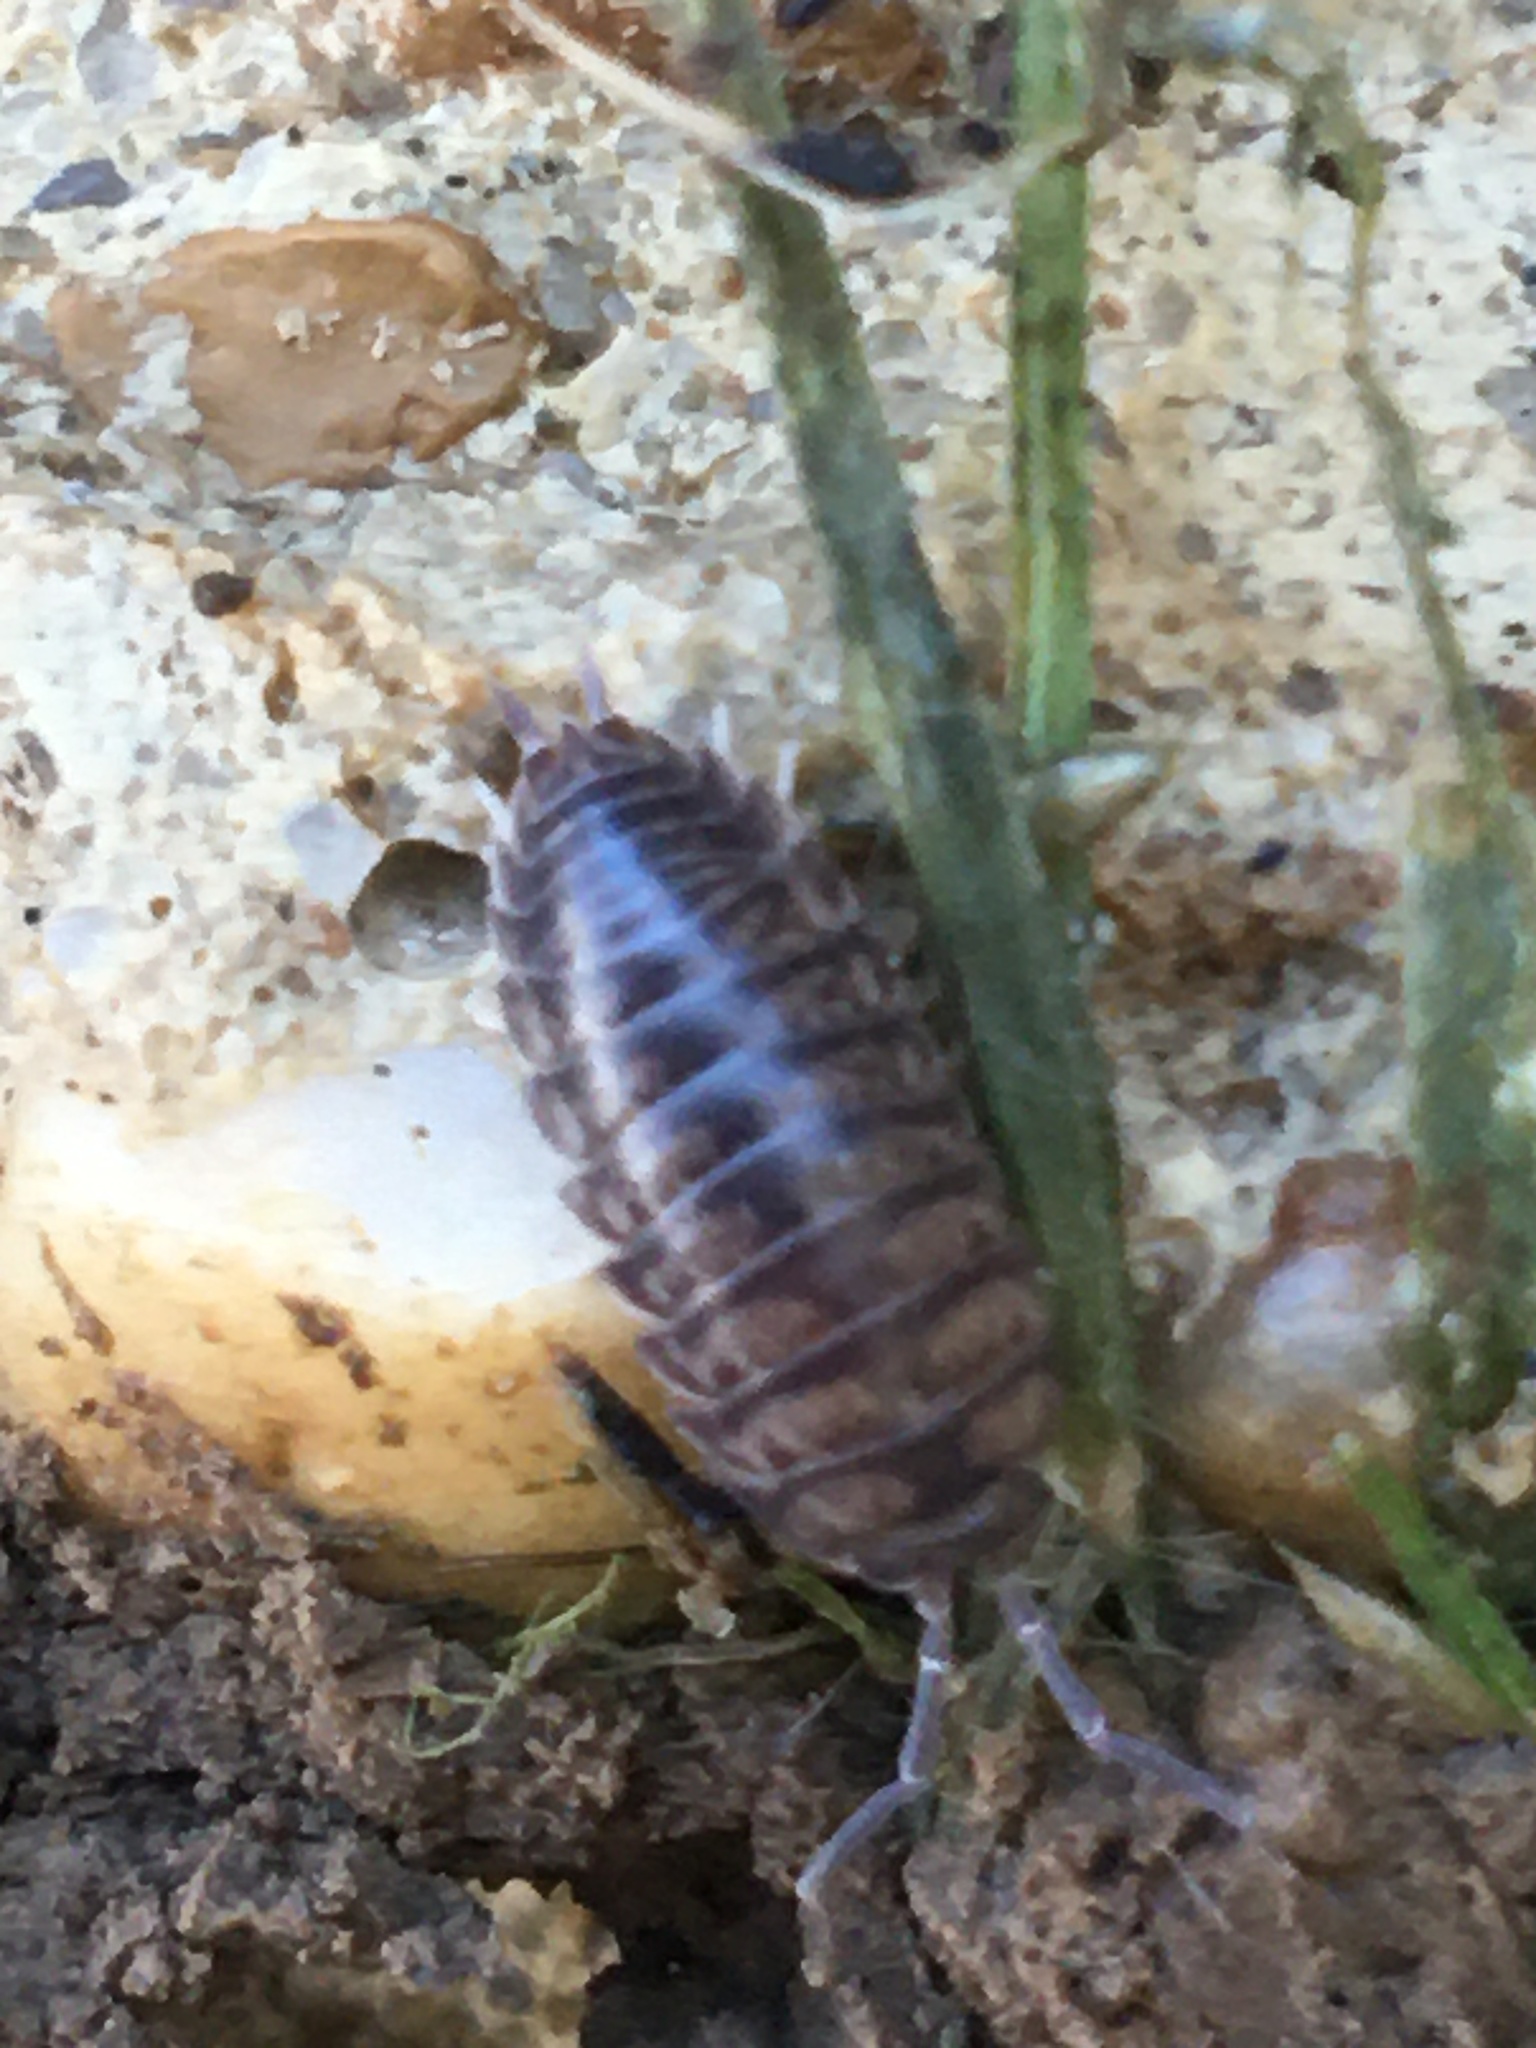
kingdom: Animalia
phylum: Arthropoda
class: Malacostraca
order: Isopoda
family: Cylisticidae
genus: Cylisticus
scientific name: Cylisticus convexus
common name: Curly woodlouse
